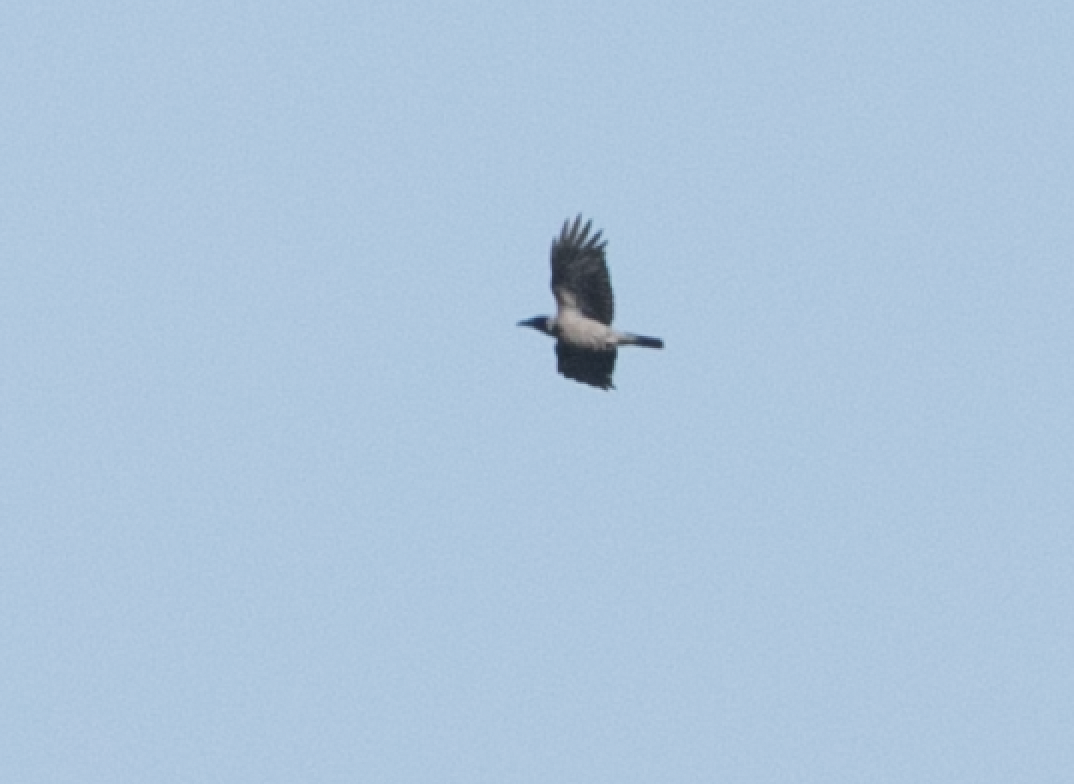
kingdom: Animalia
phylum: Chordata
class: Aves
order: Passeriformes
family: Corvidae
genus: Corvus
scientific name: Corvus cornix
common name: Hooded crow
